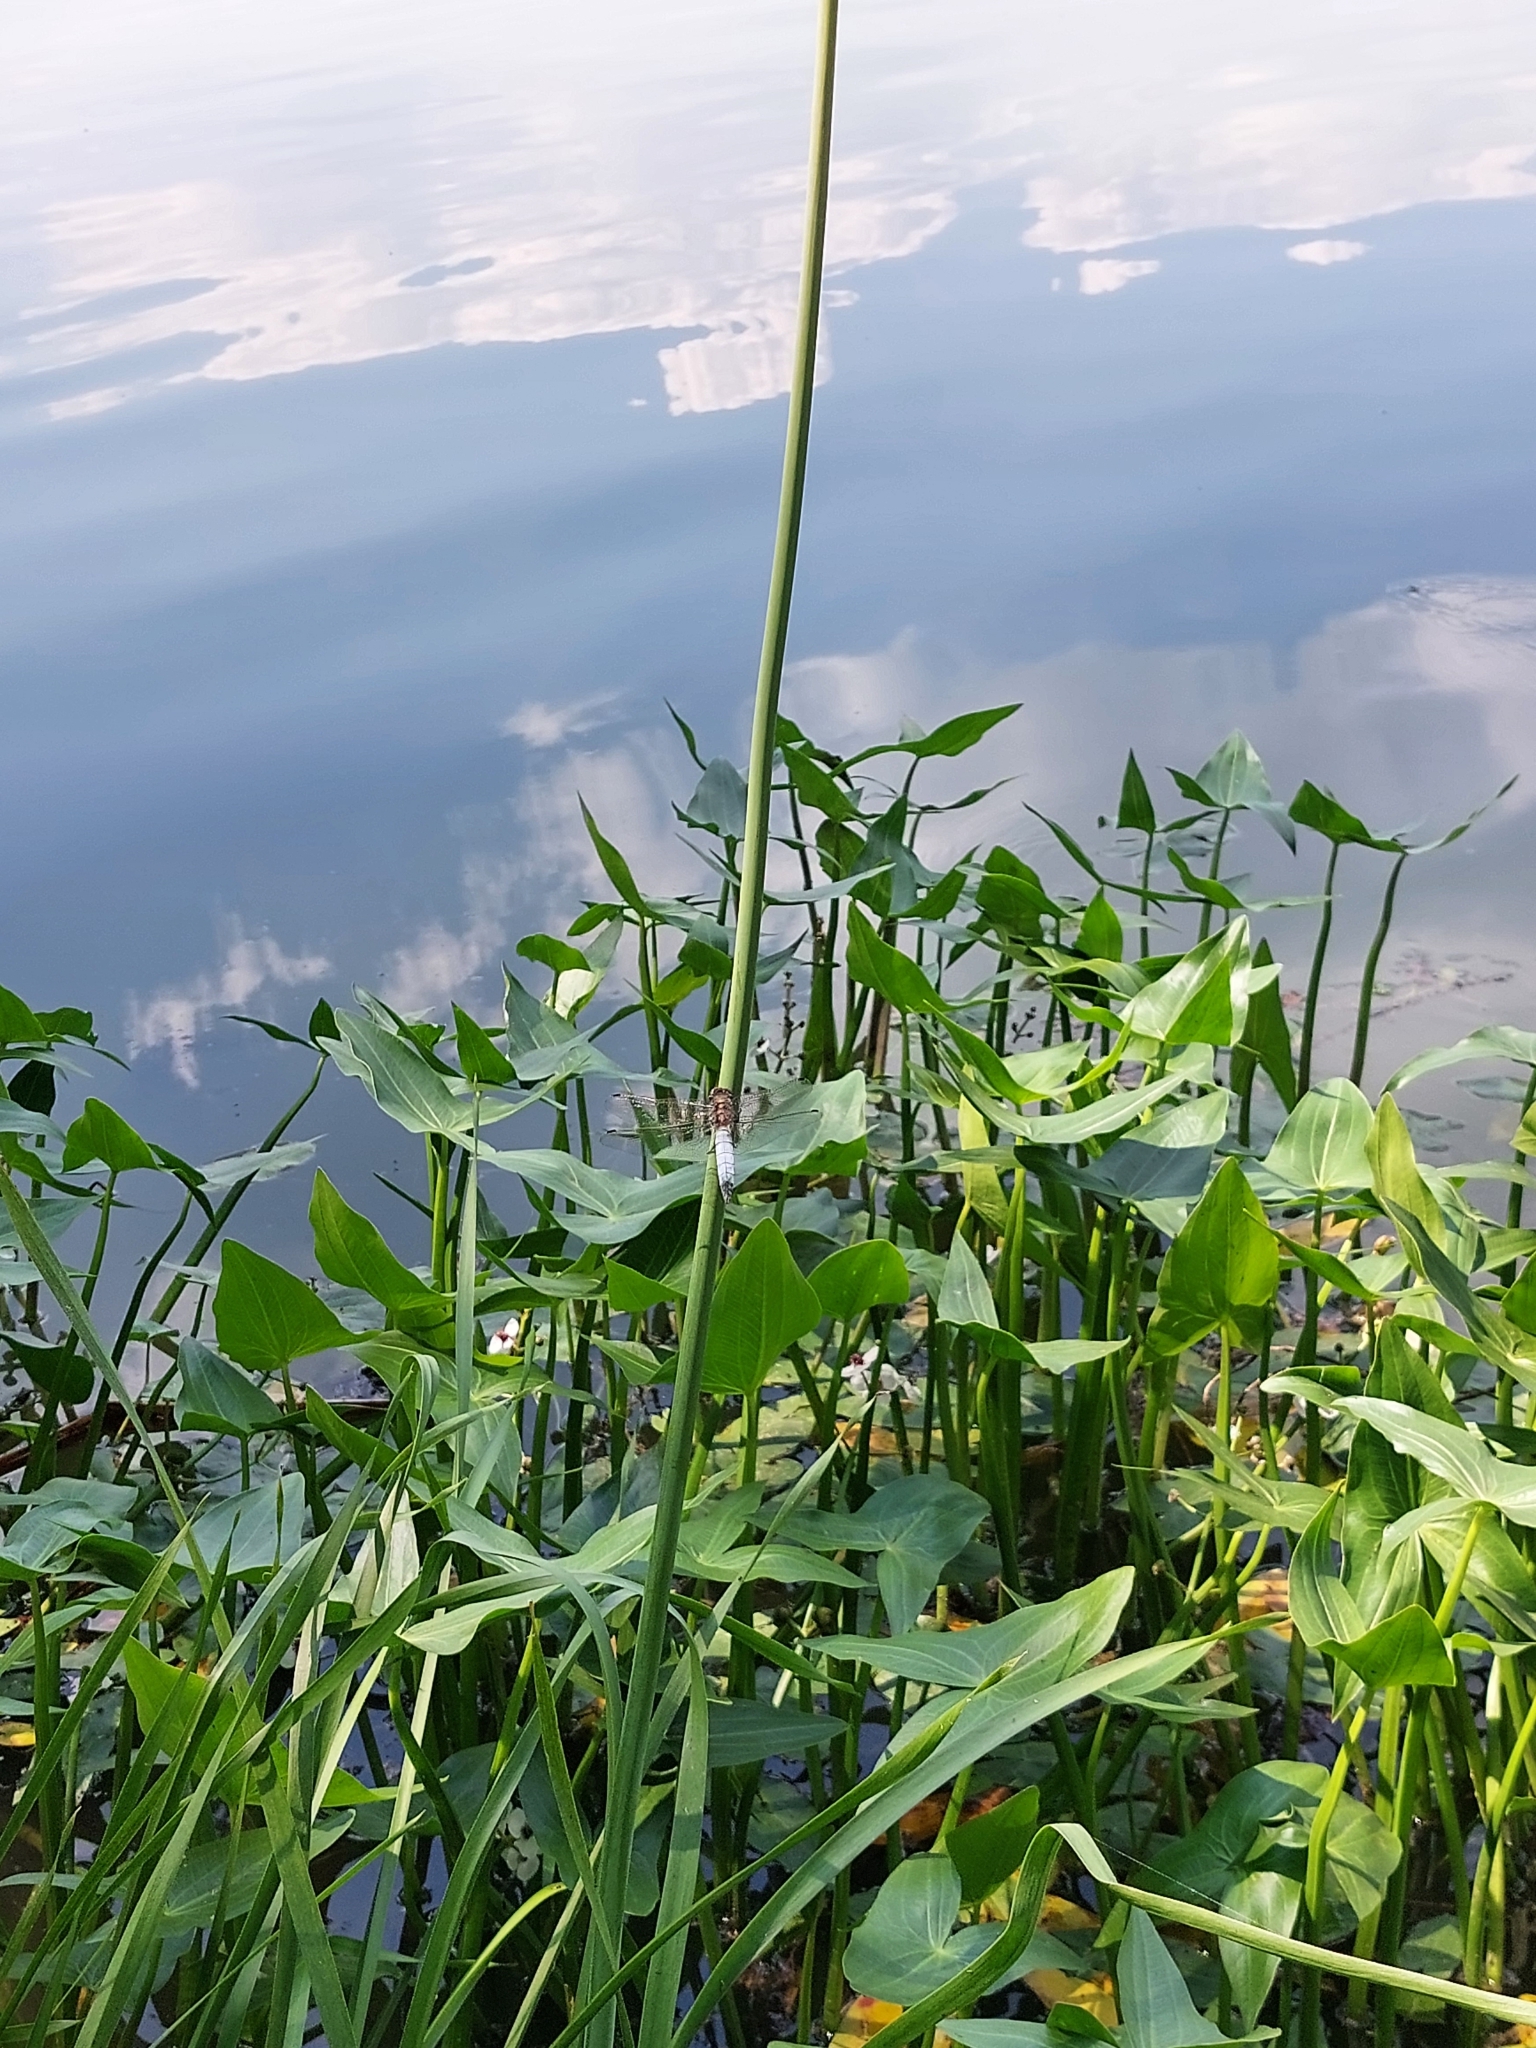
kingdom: Animalia
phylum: Arthropoda
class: Insecta
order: Odonata
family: Libellulidae
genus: Orthetrum
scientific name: Orthetrum cancellatum
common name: Black-tailed skimmer
